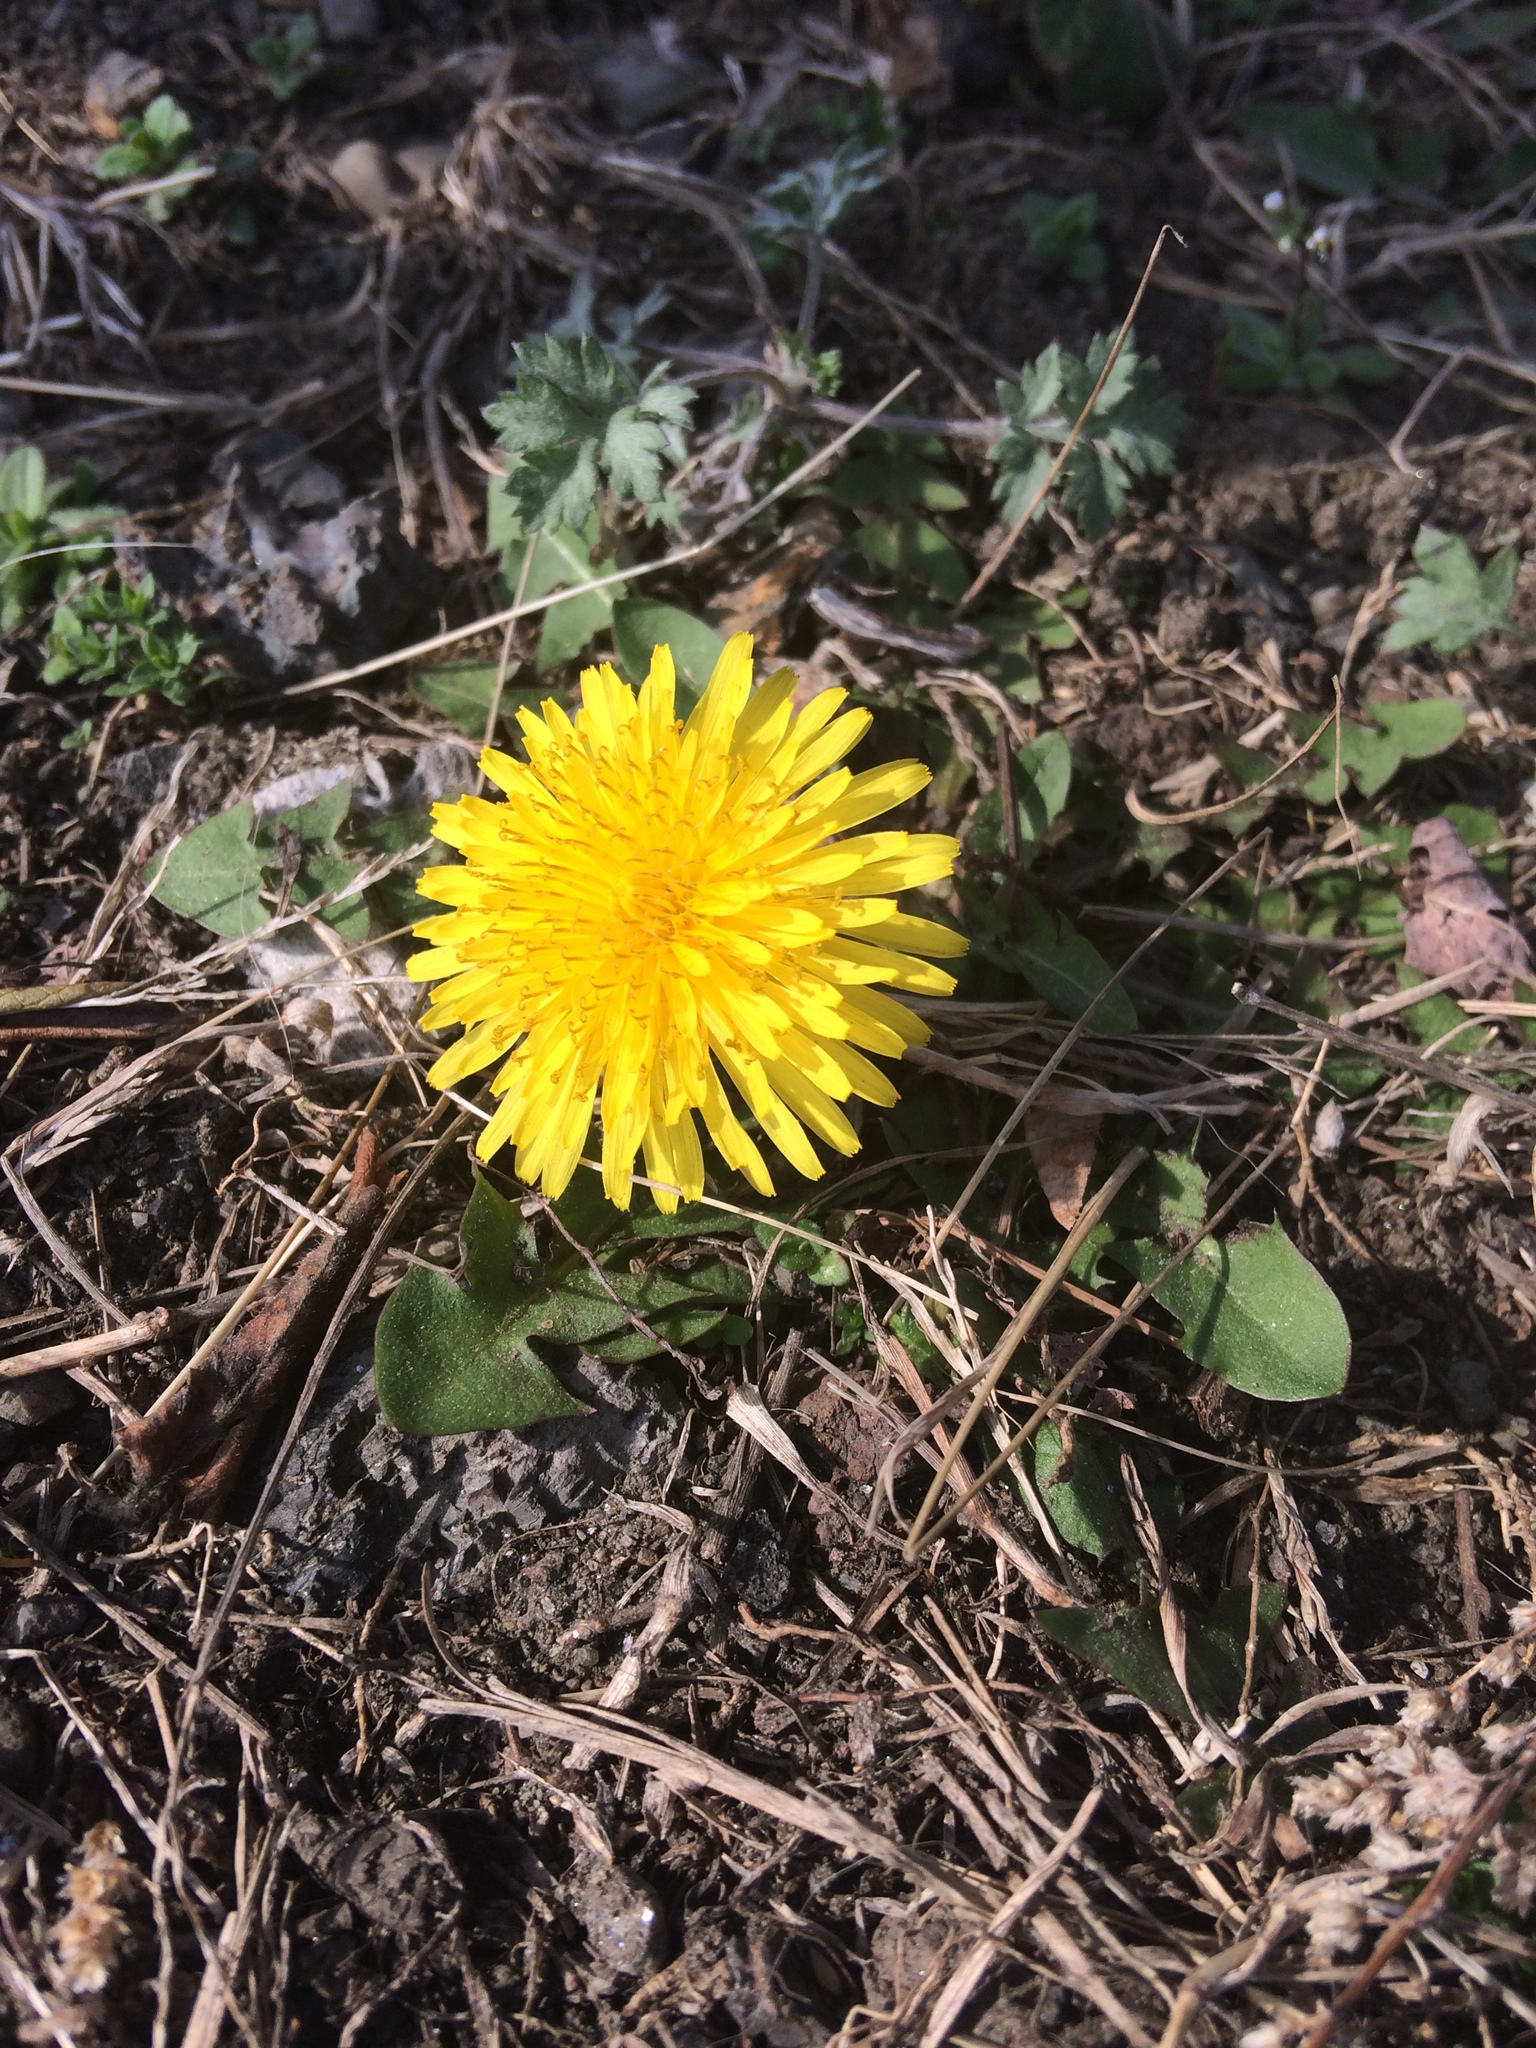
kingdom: Plantae
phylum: Tracheophyta
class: Magnoliopsida
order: Asterales
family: Asteraceae
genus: Taraxacum
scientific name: Taraxacum officinale
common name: Common dandelion
